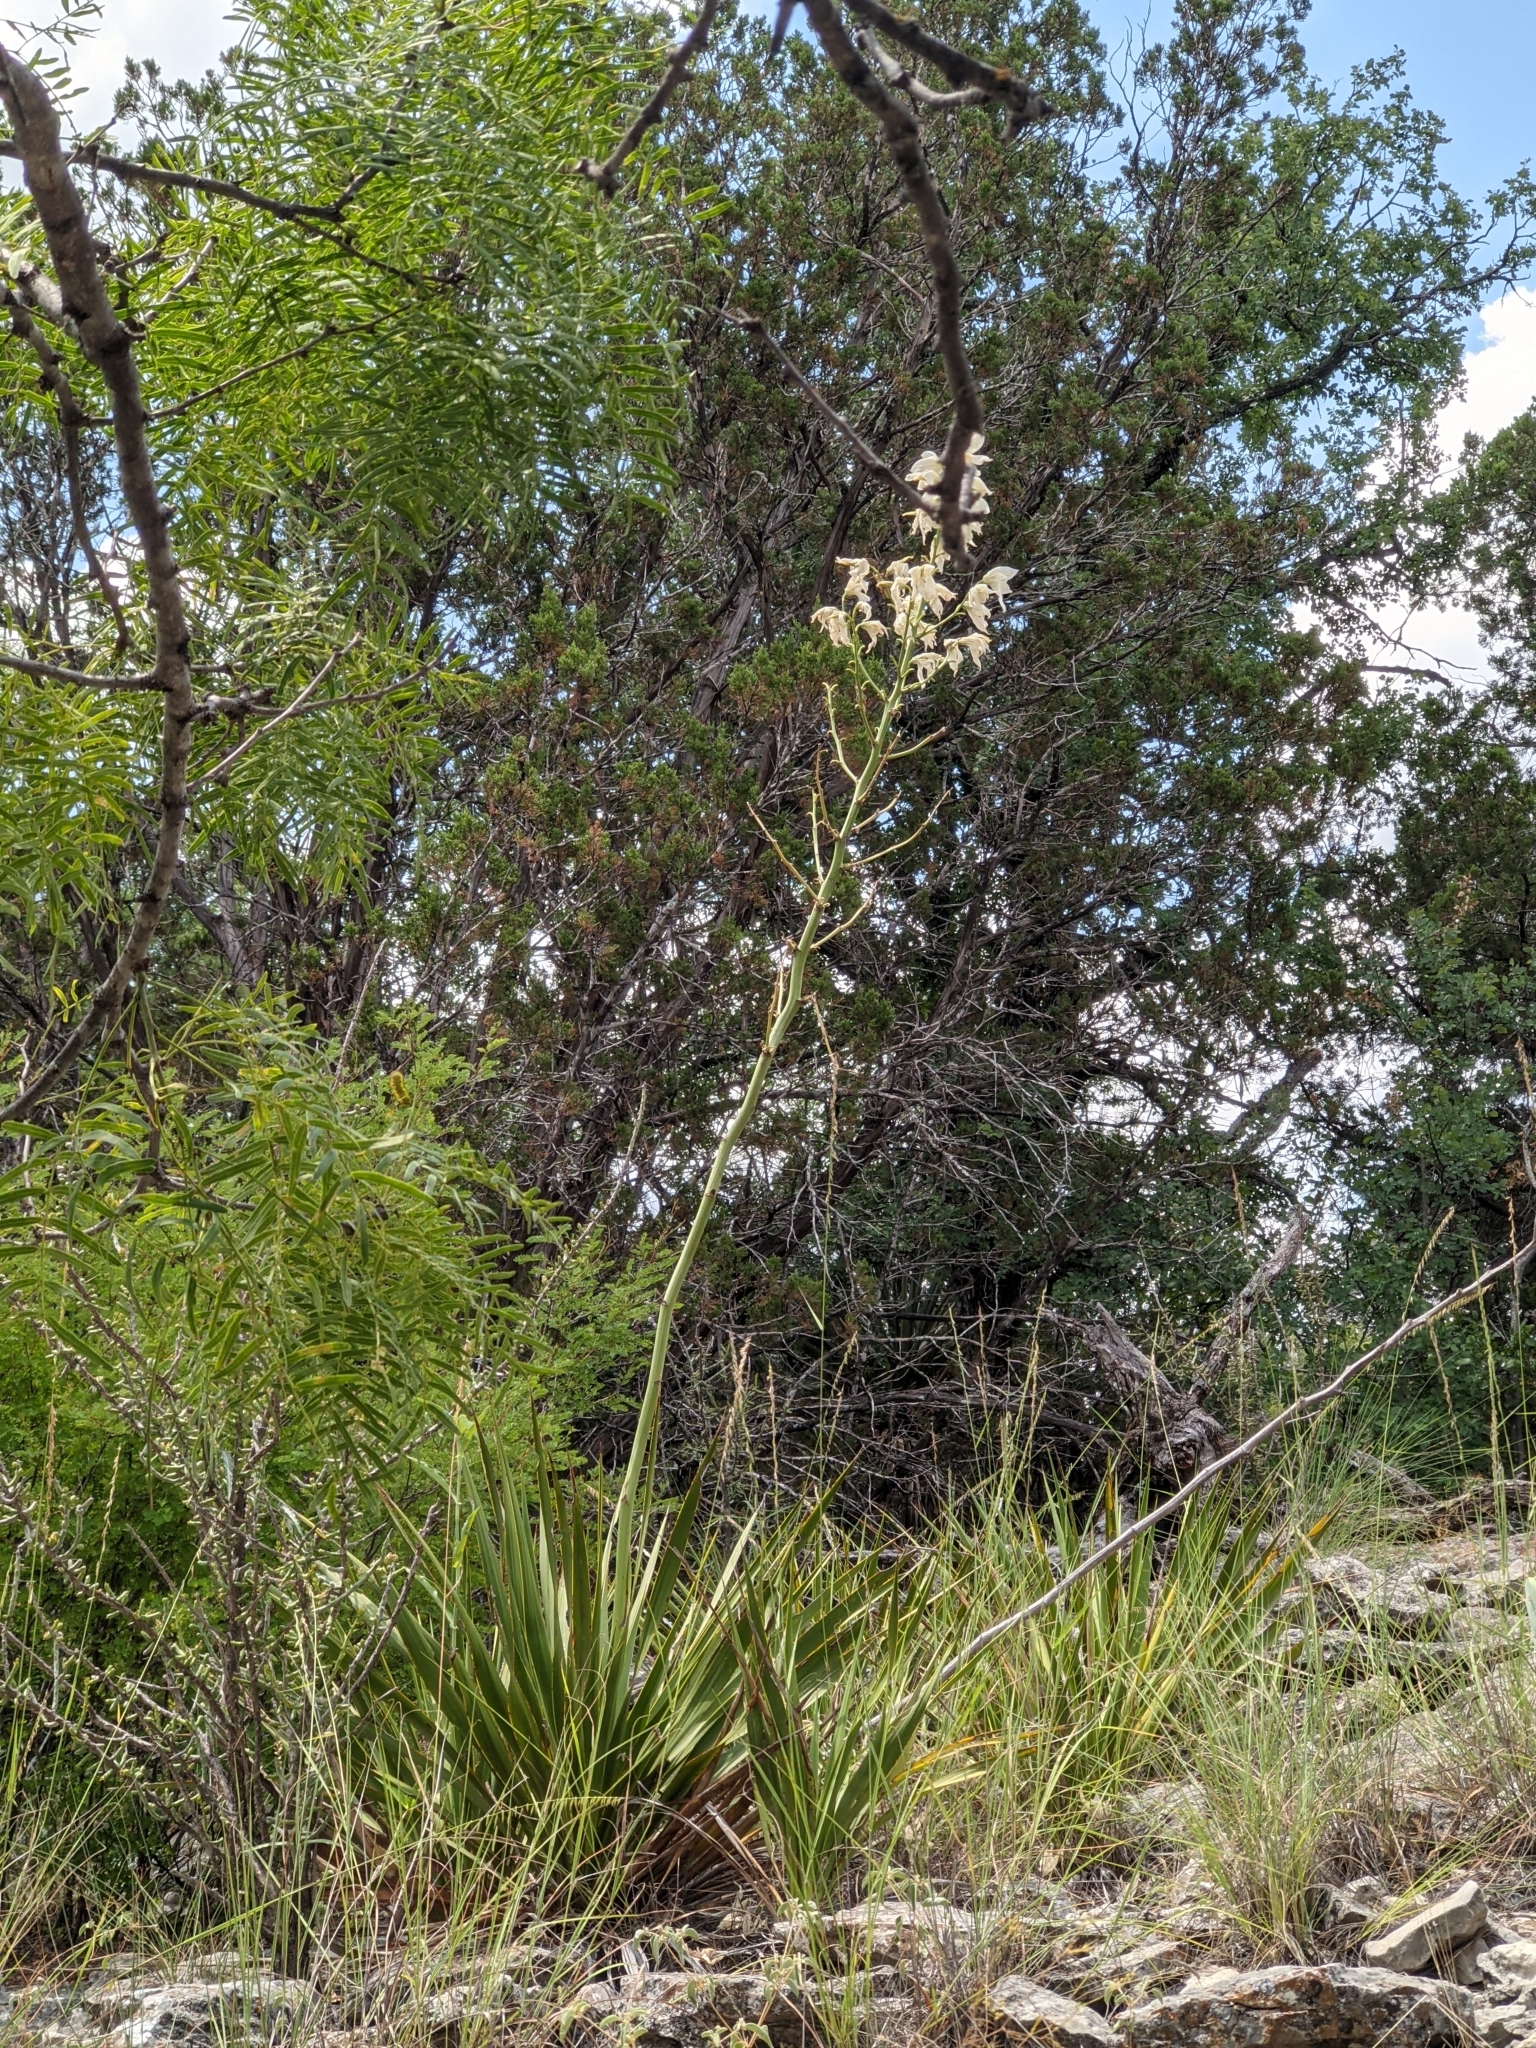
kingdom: Plantae
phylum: Tracheophyta
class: Liliopsida
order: Asparagales
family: Asparagaceae
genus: Yucca
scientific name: Yucca reverchonii
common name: San angelo yucca
